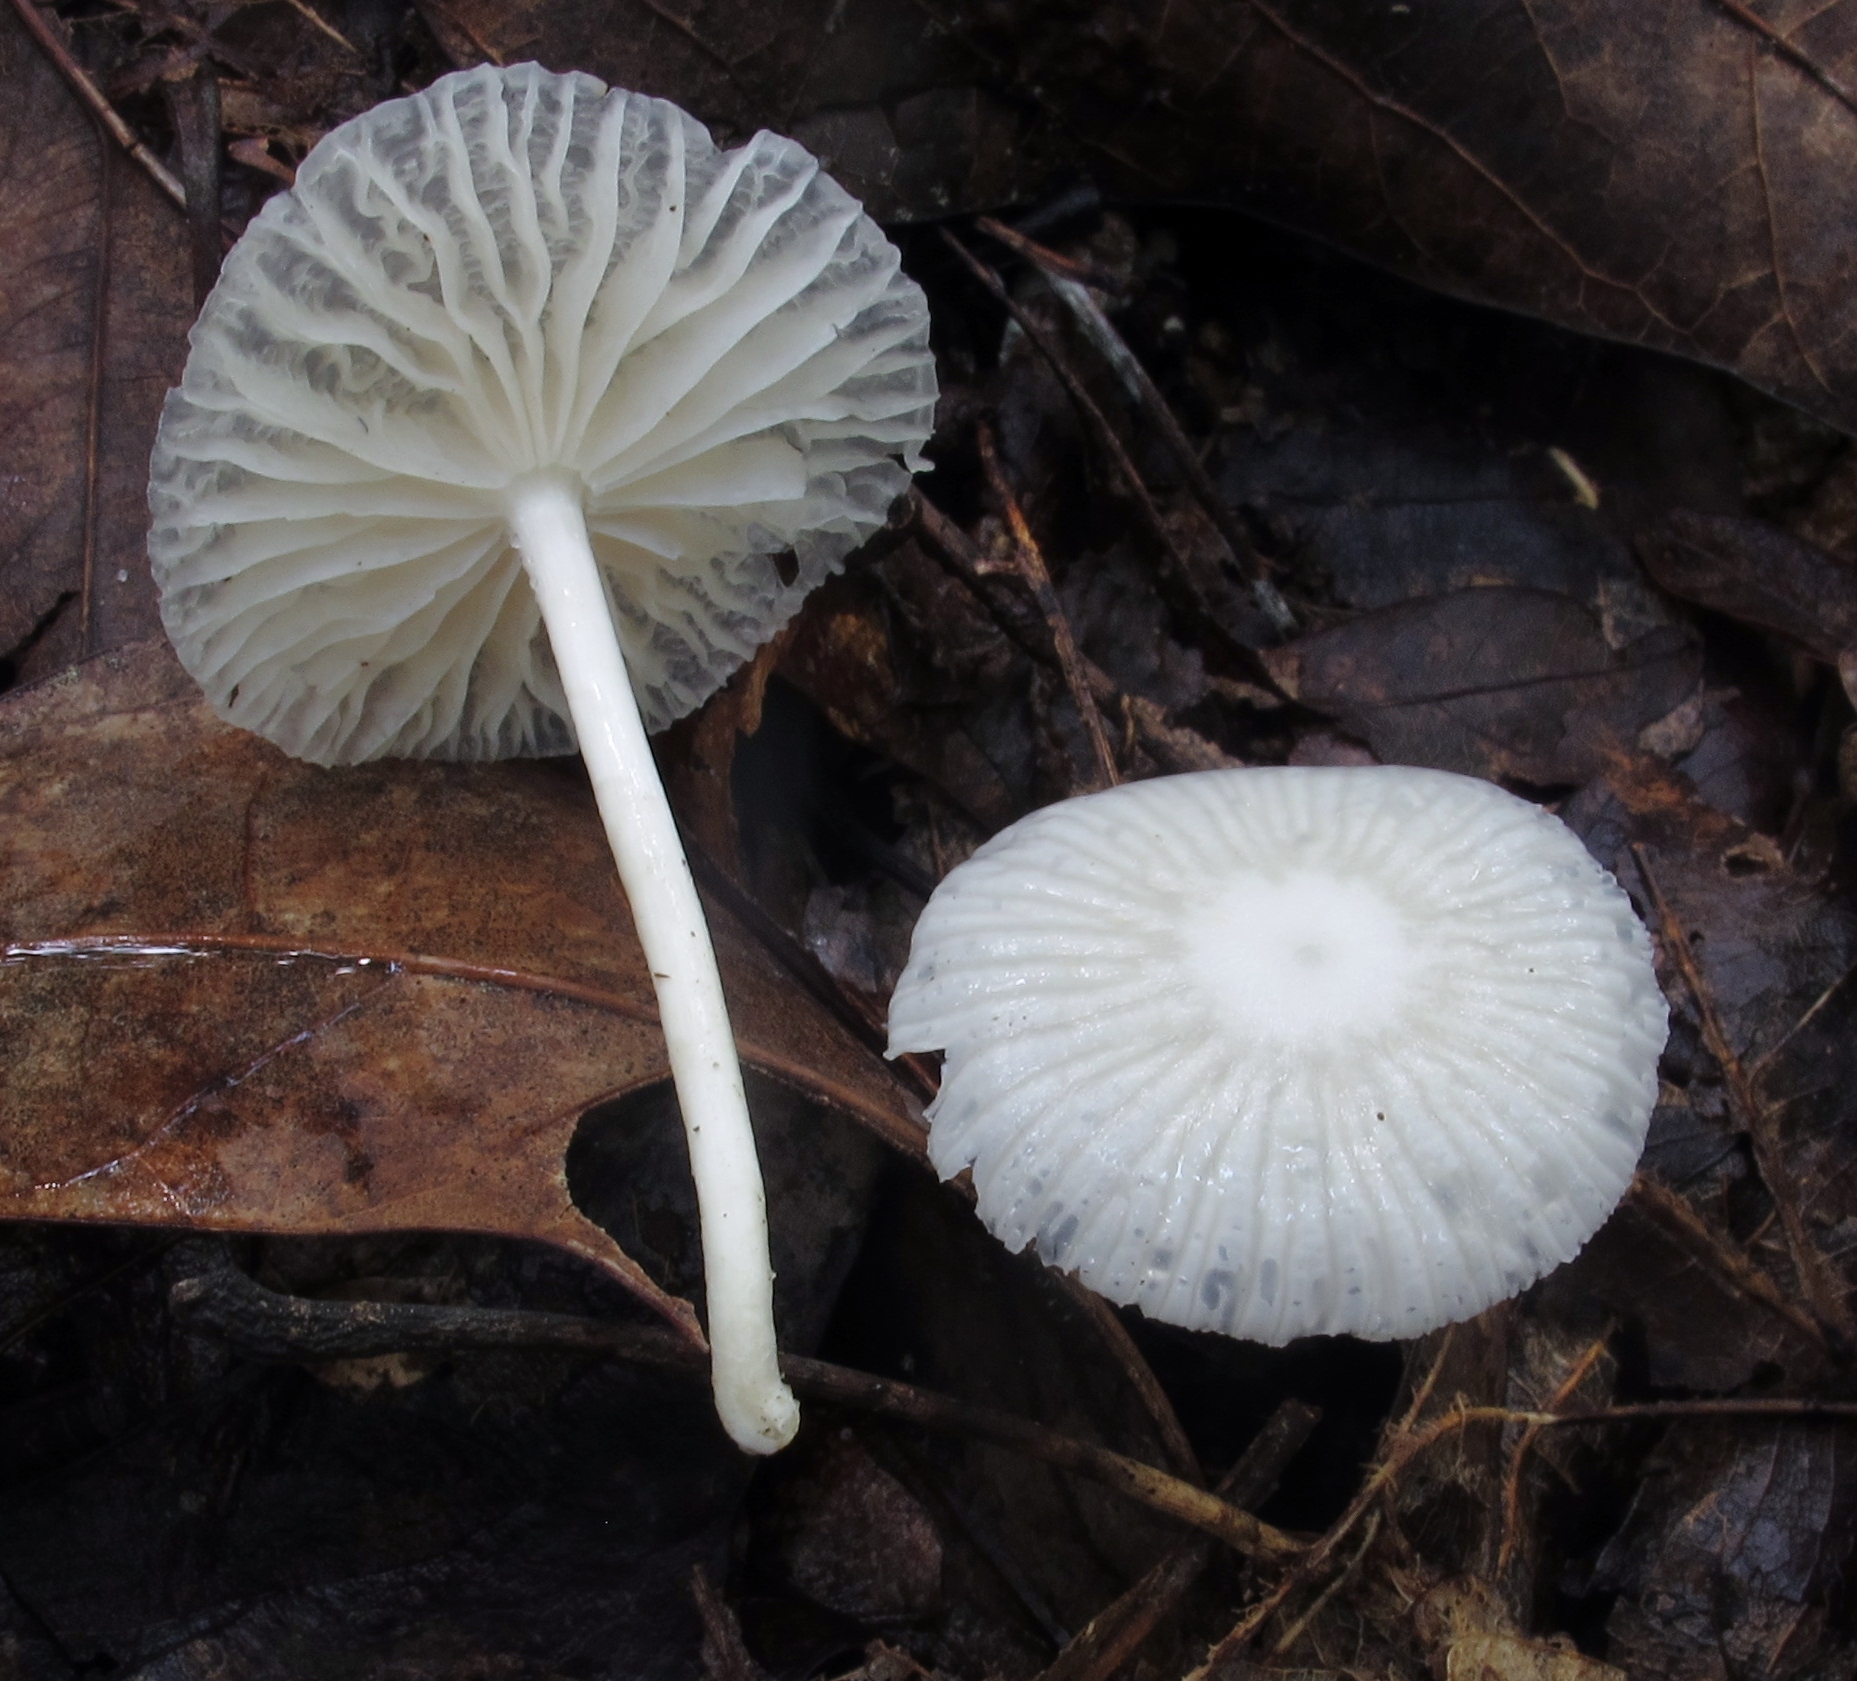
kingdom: Fungi
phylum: Basidiomycota
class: Agaricomycetes
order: Agaricales
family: Omphalotaceae
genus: Marasmiellus
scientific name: Marasmiellus candidus
